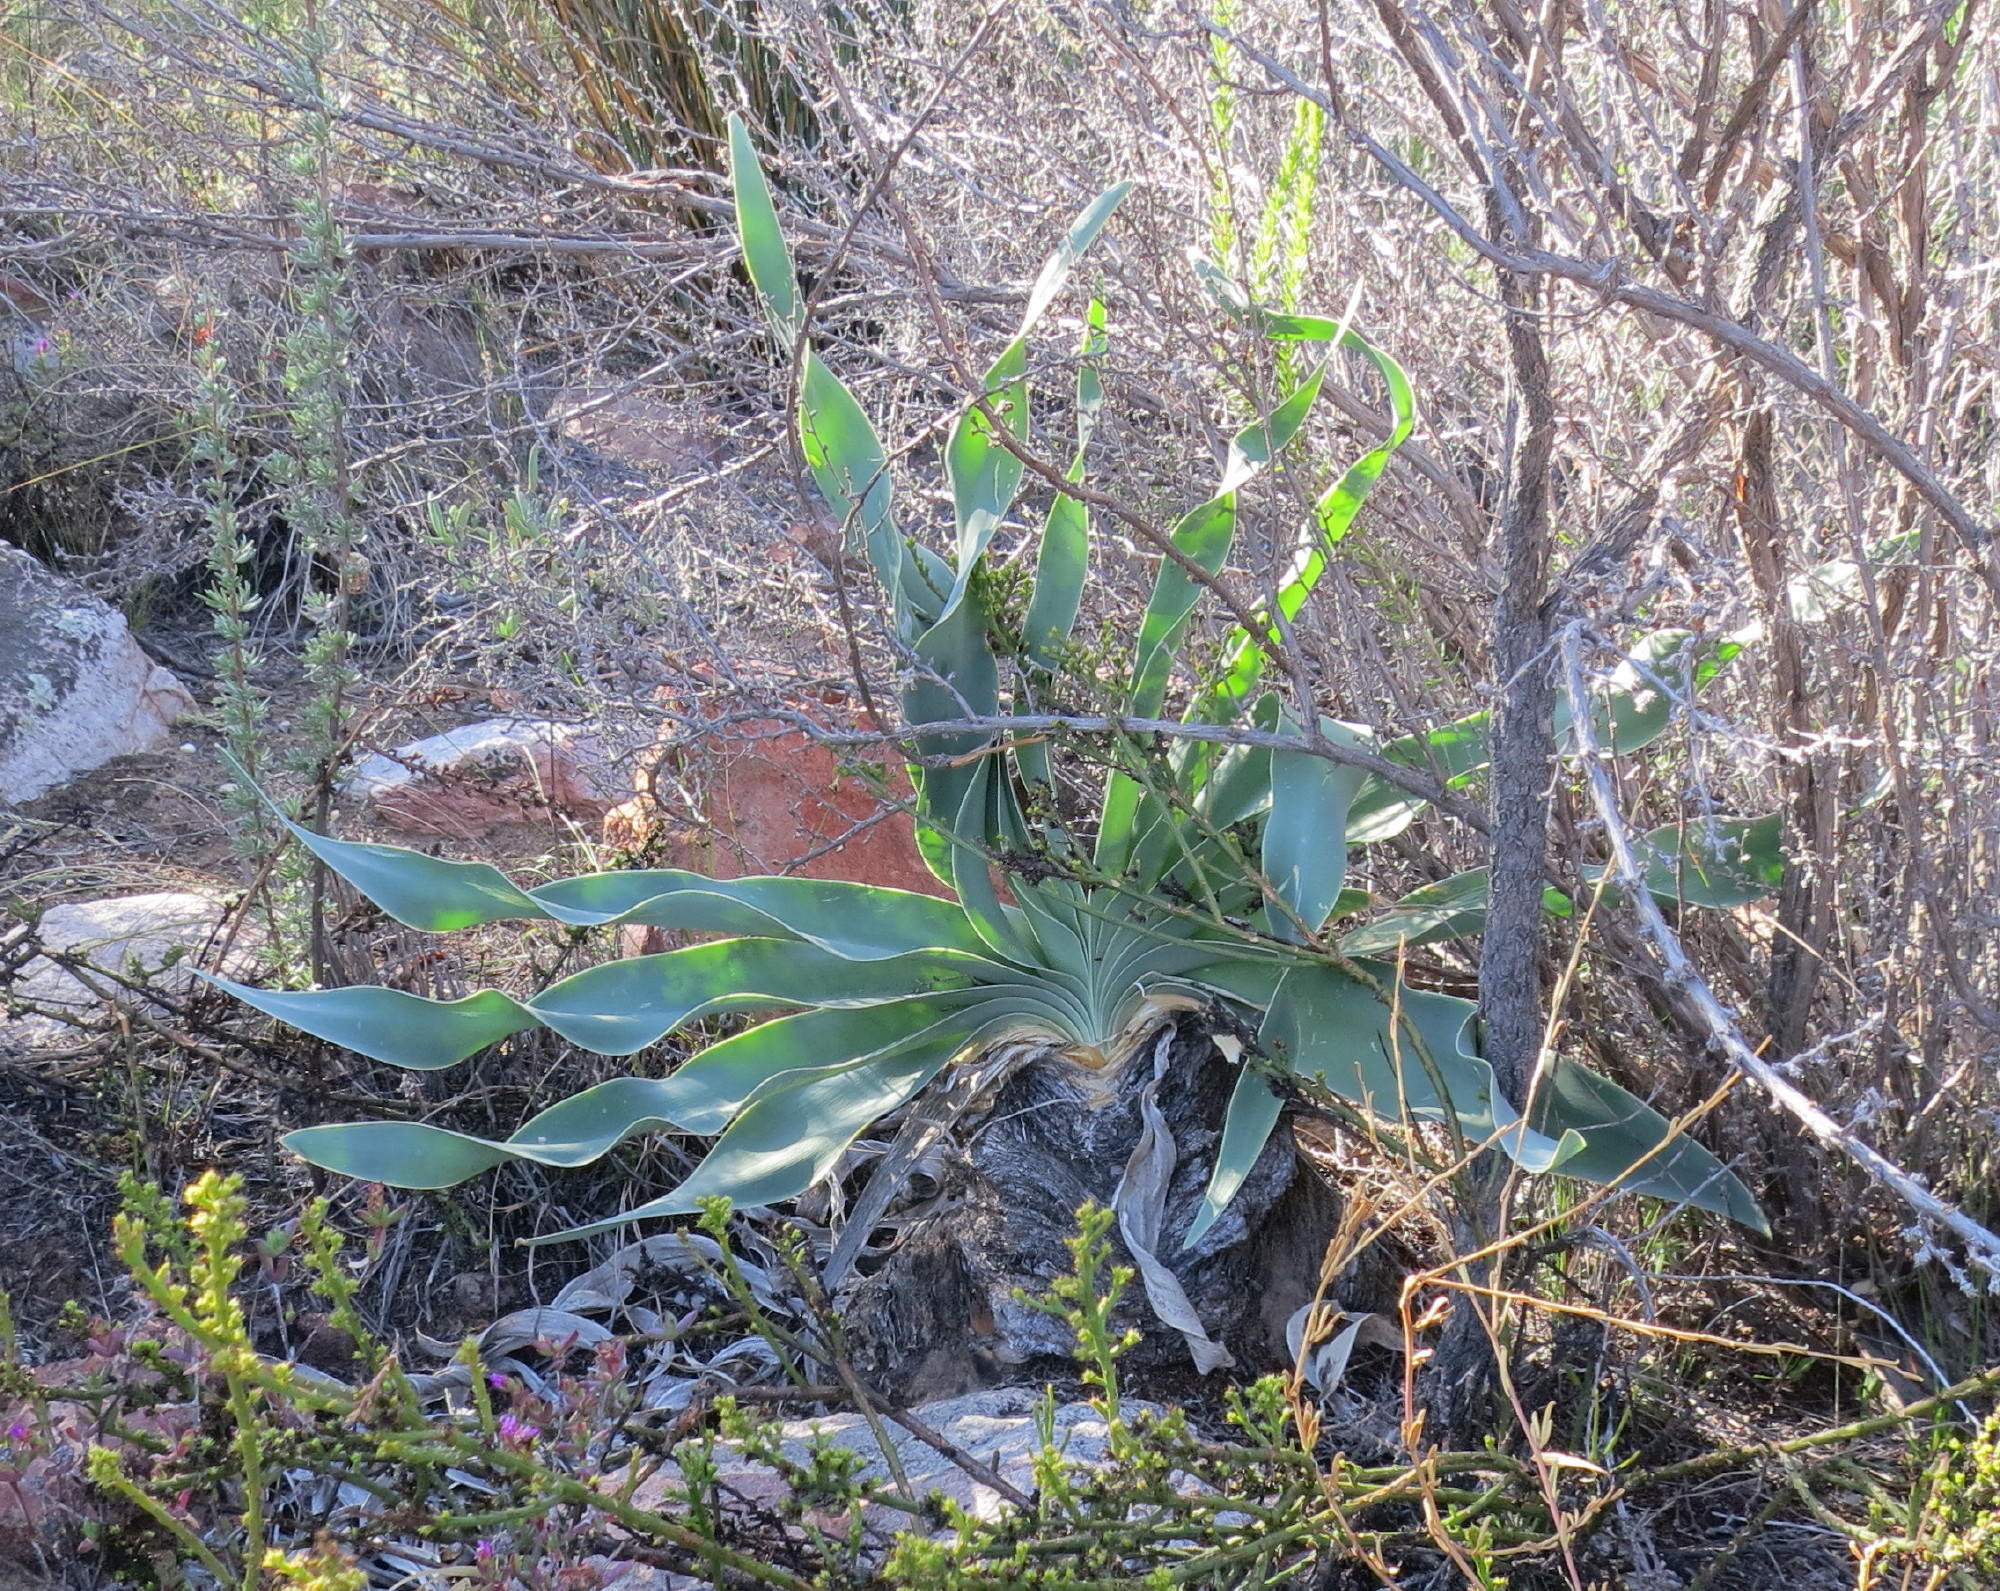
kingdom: Plantae
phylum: Tracheophyta
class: Liliopsida
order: Asparagales
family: Amaryllidaceae
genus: Boophone
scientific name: Boophone disticha
